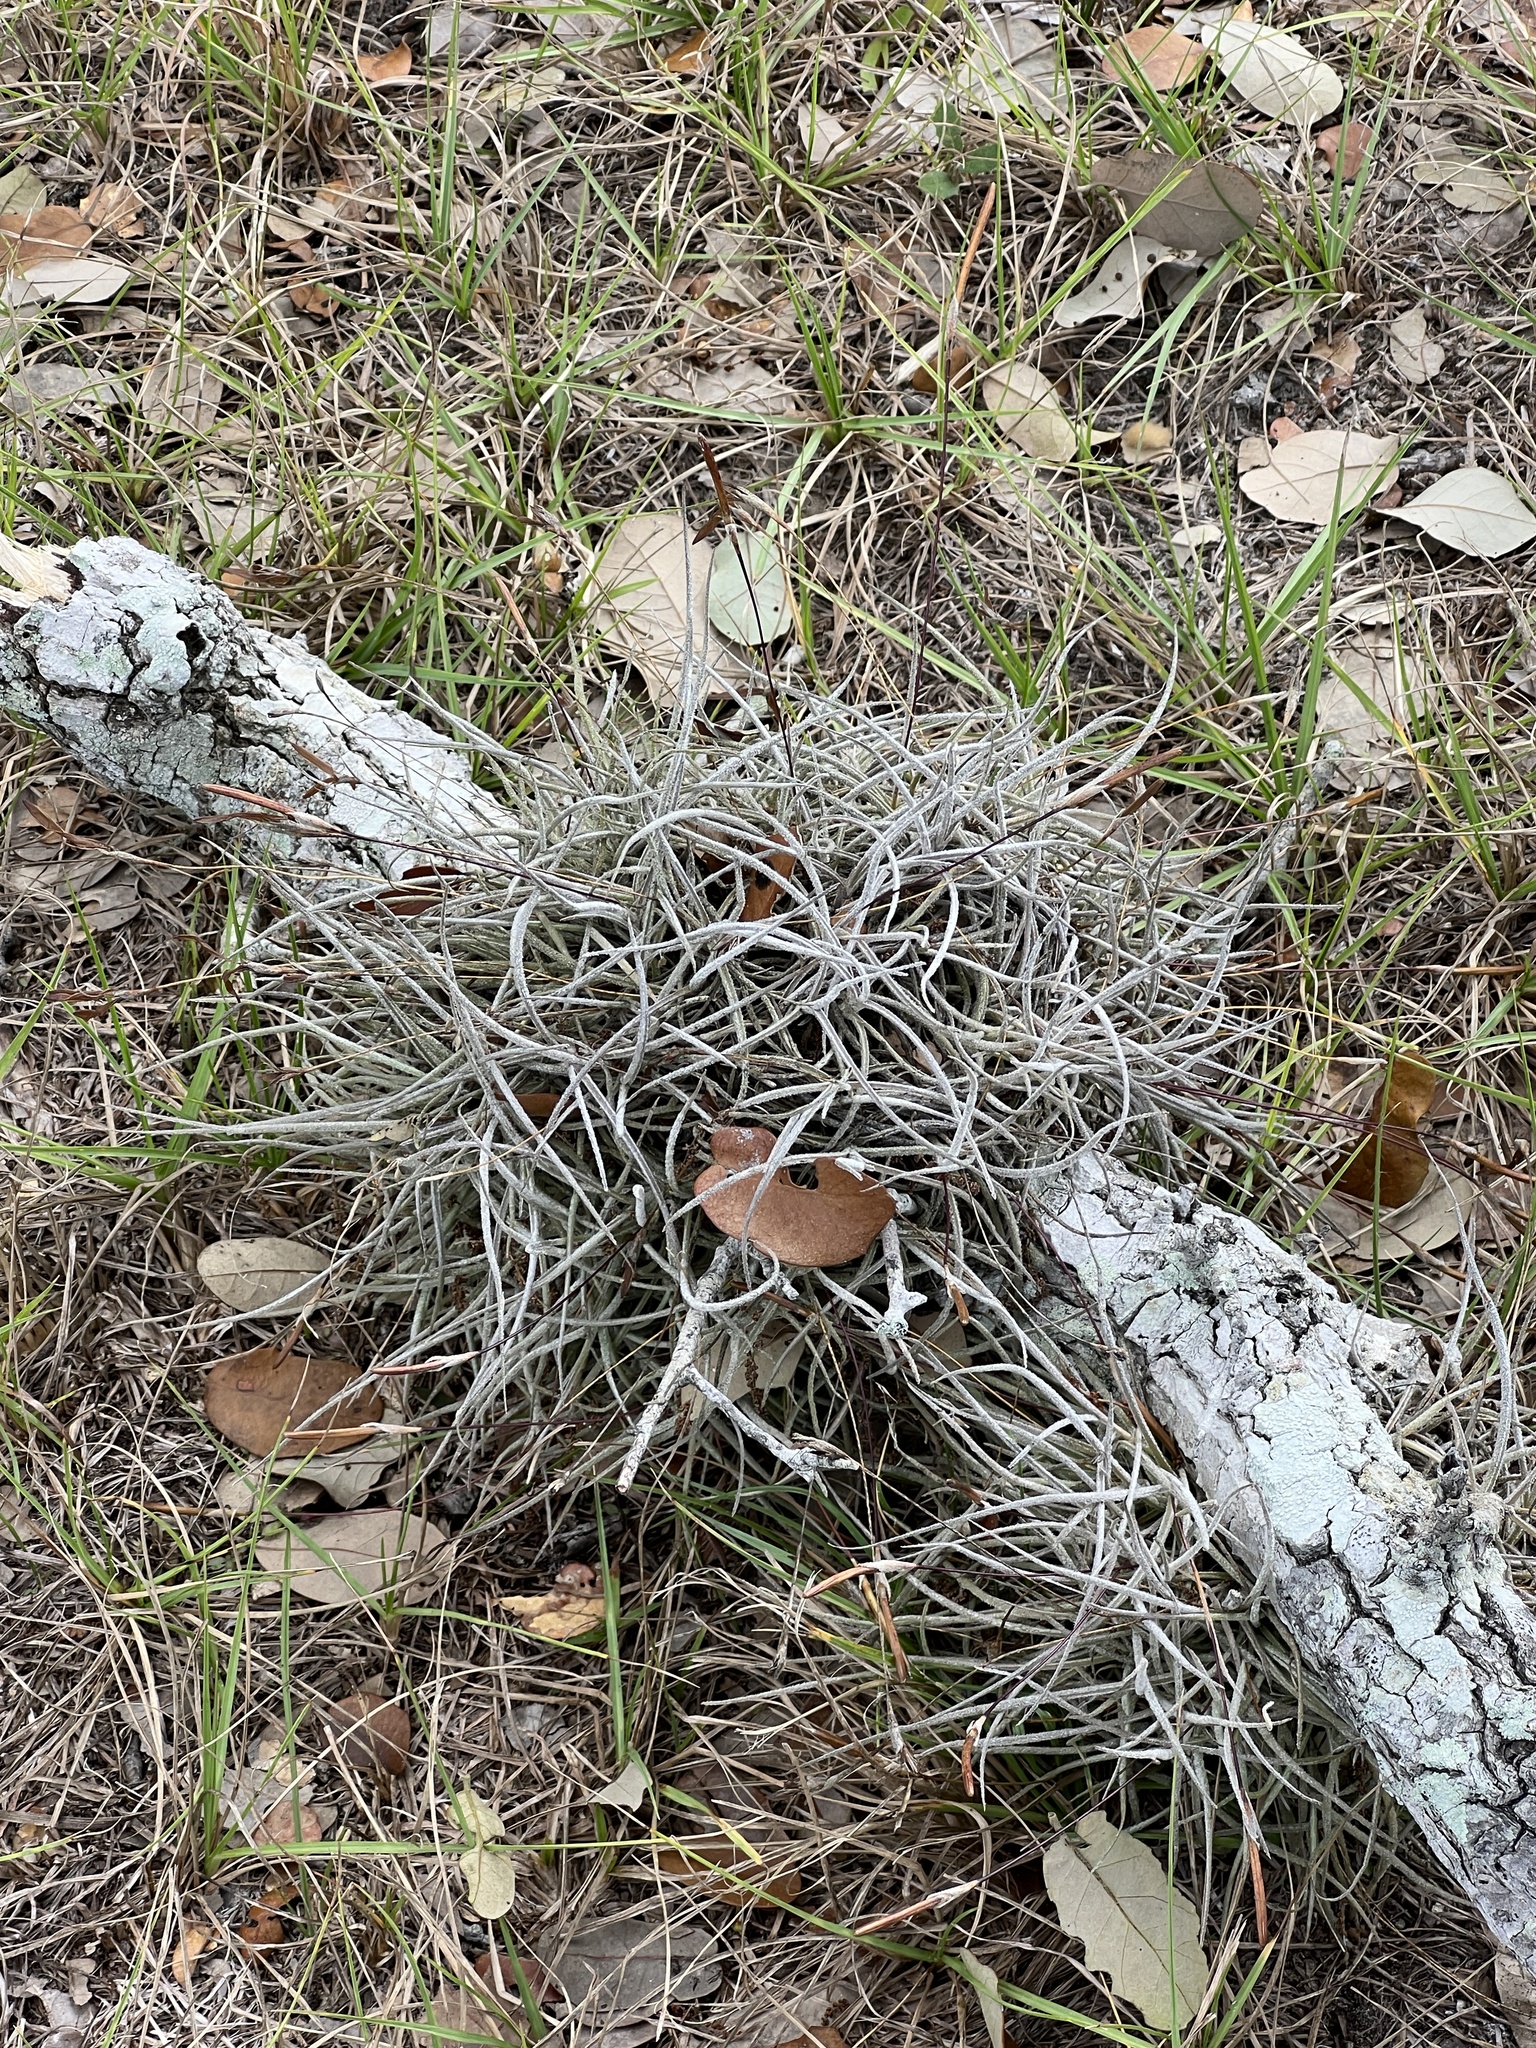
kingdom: Plantae
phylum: Tracheophyta
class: Liliopsida
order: Poales
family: Bromeliaceae
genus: Tillandsia
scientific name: Tillandsia recurvata
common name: Small ballmoss
